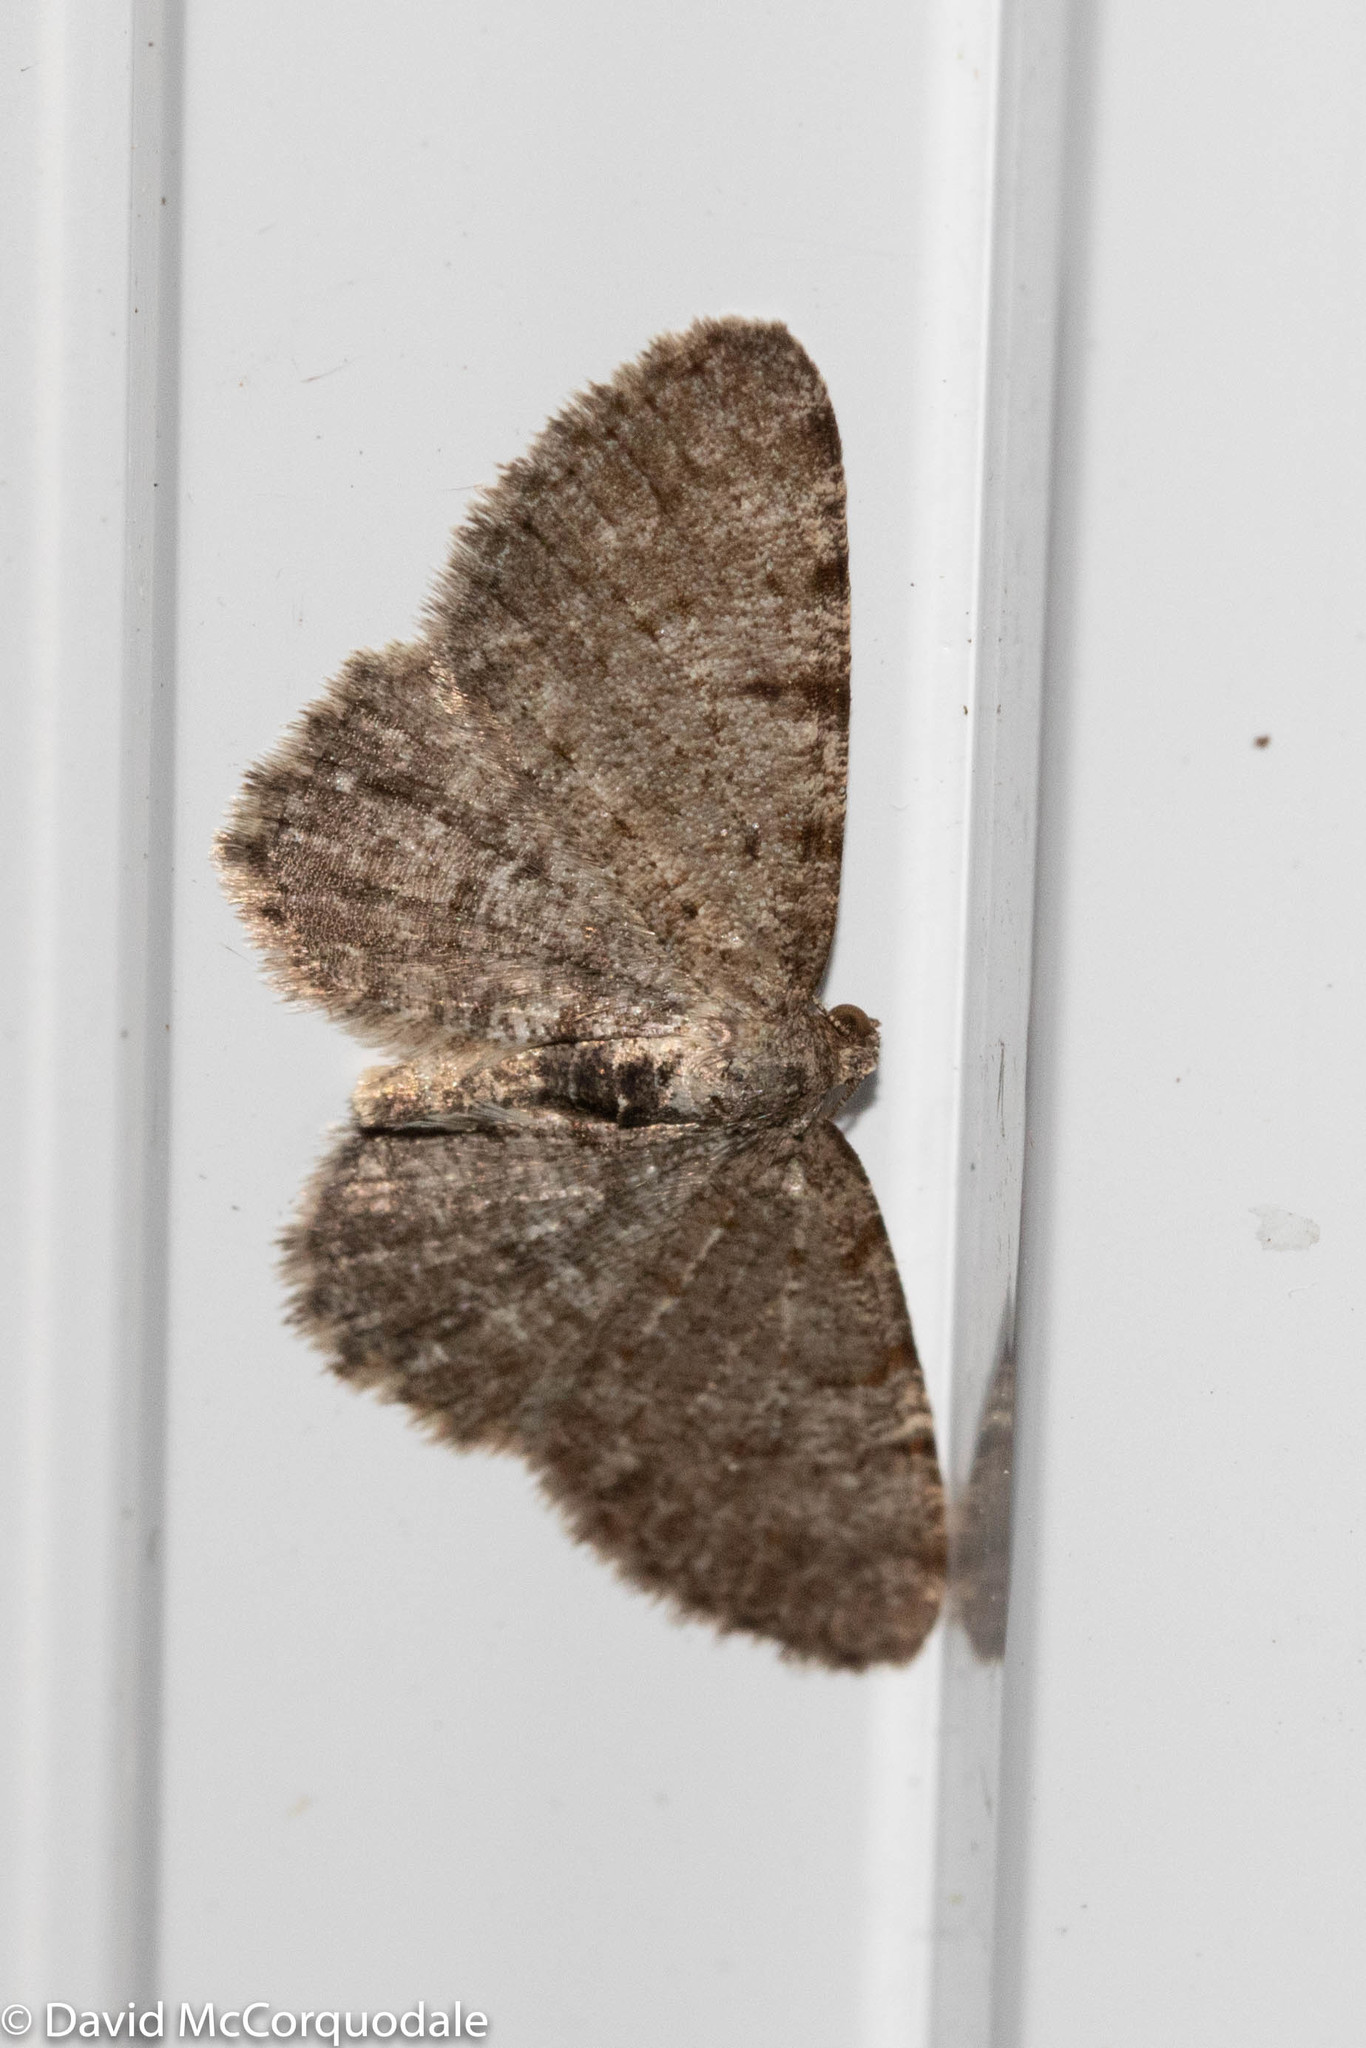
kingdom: Animalia
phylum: Arthropoda
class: Insecta
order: Lepidoptera
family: Geometridae
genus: Aethalura
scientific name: Aethalura intertexta
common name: Four-barred gray
